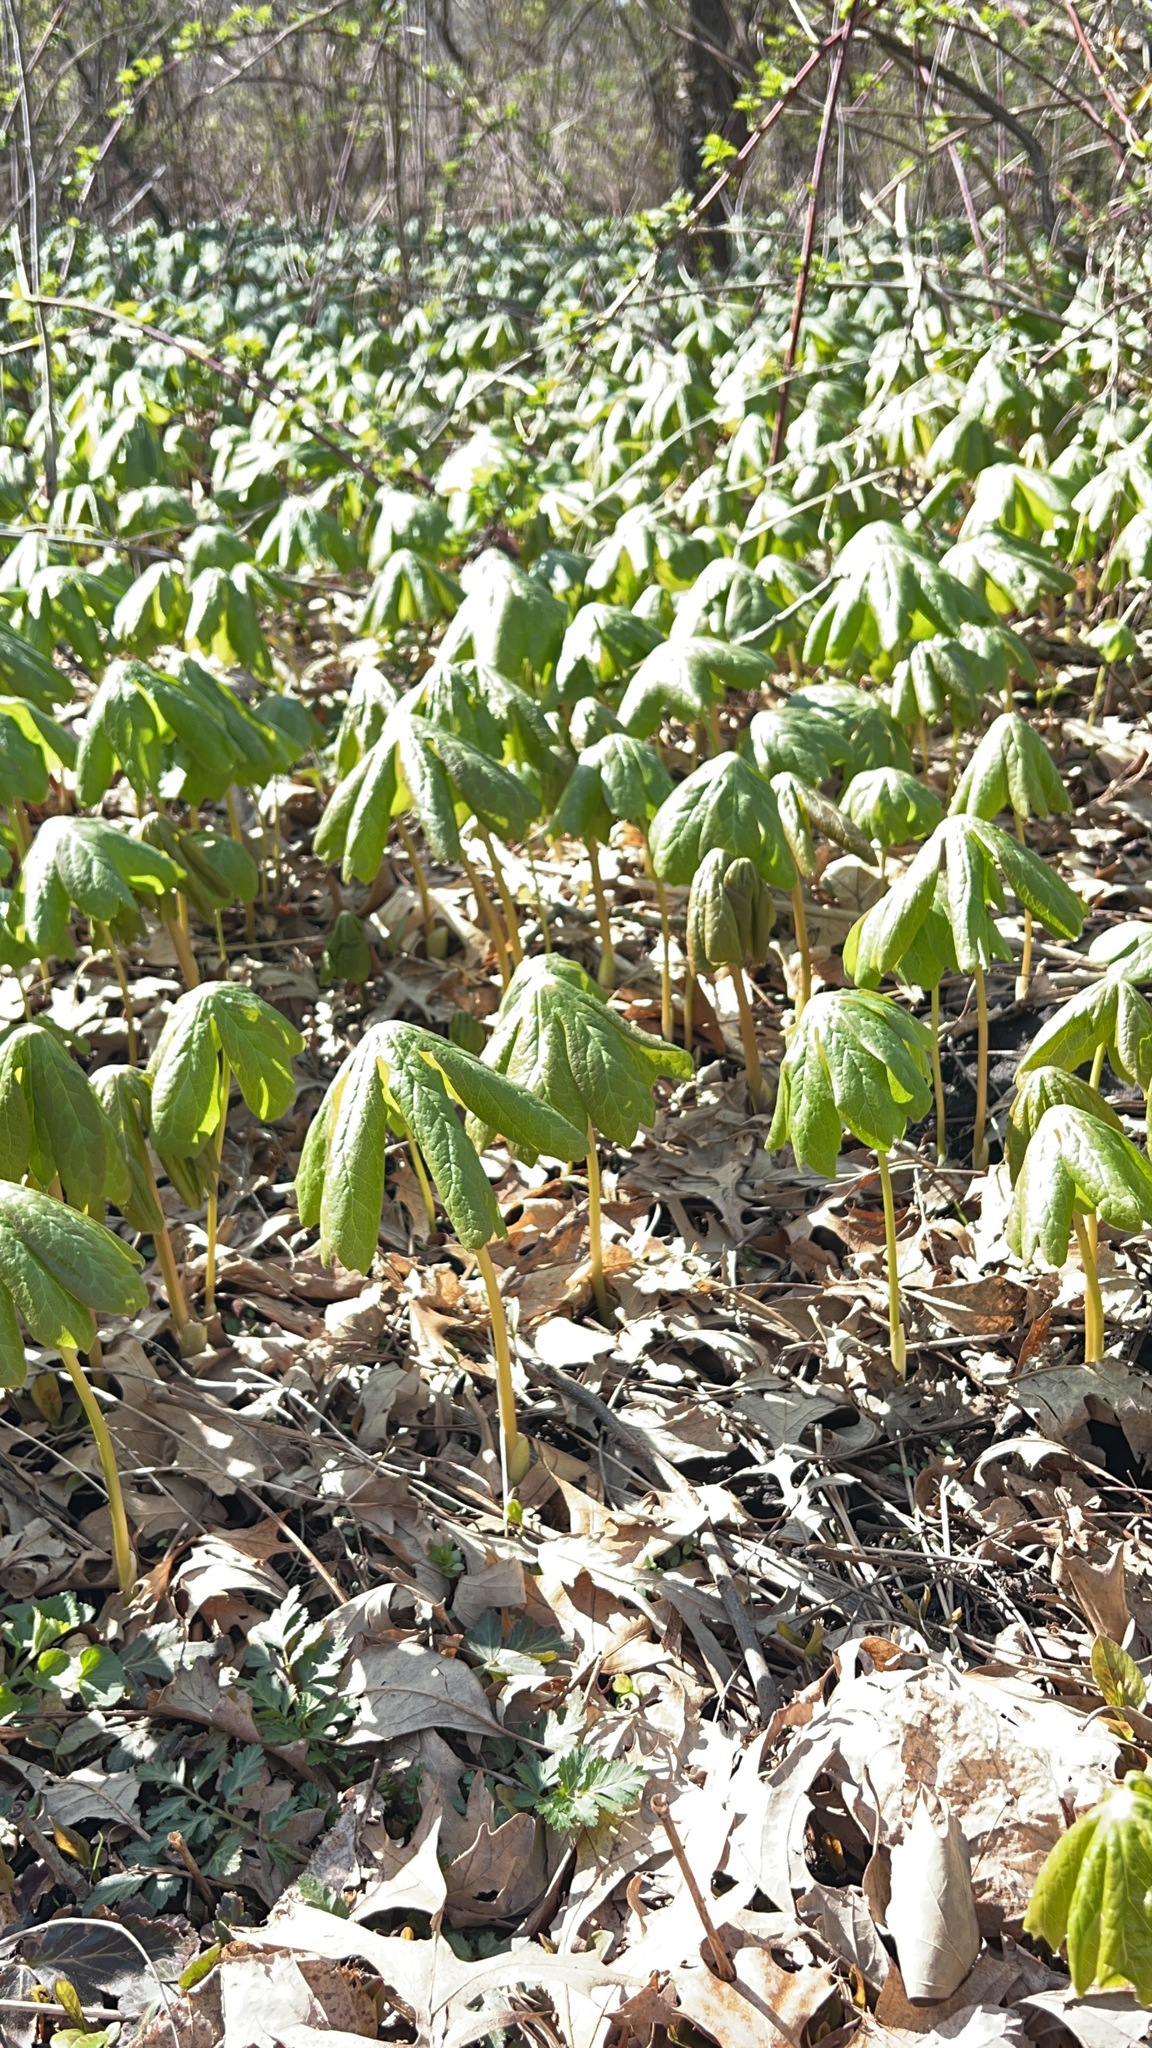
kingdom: Plantae
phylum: Tracheophyta
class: Magnoliopsida
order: Ranunculales
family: Berberidaceae
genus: Podophyllum
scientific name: Podophyllum peltatum
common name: Wild mandrake
